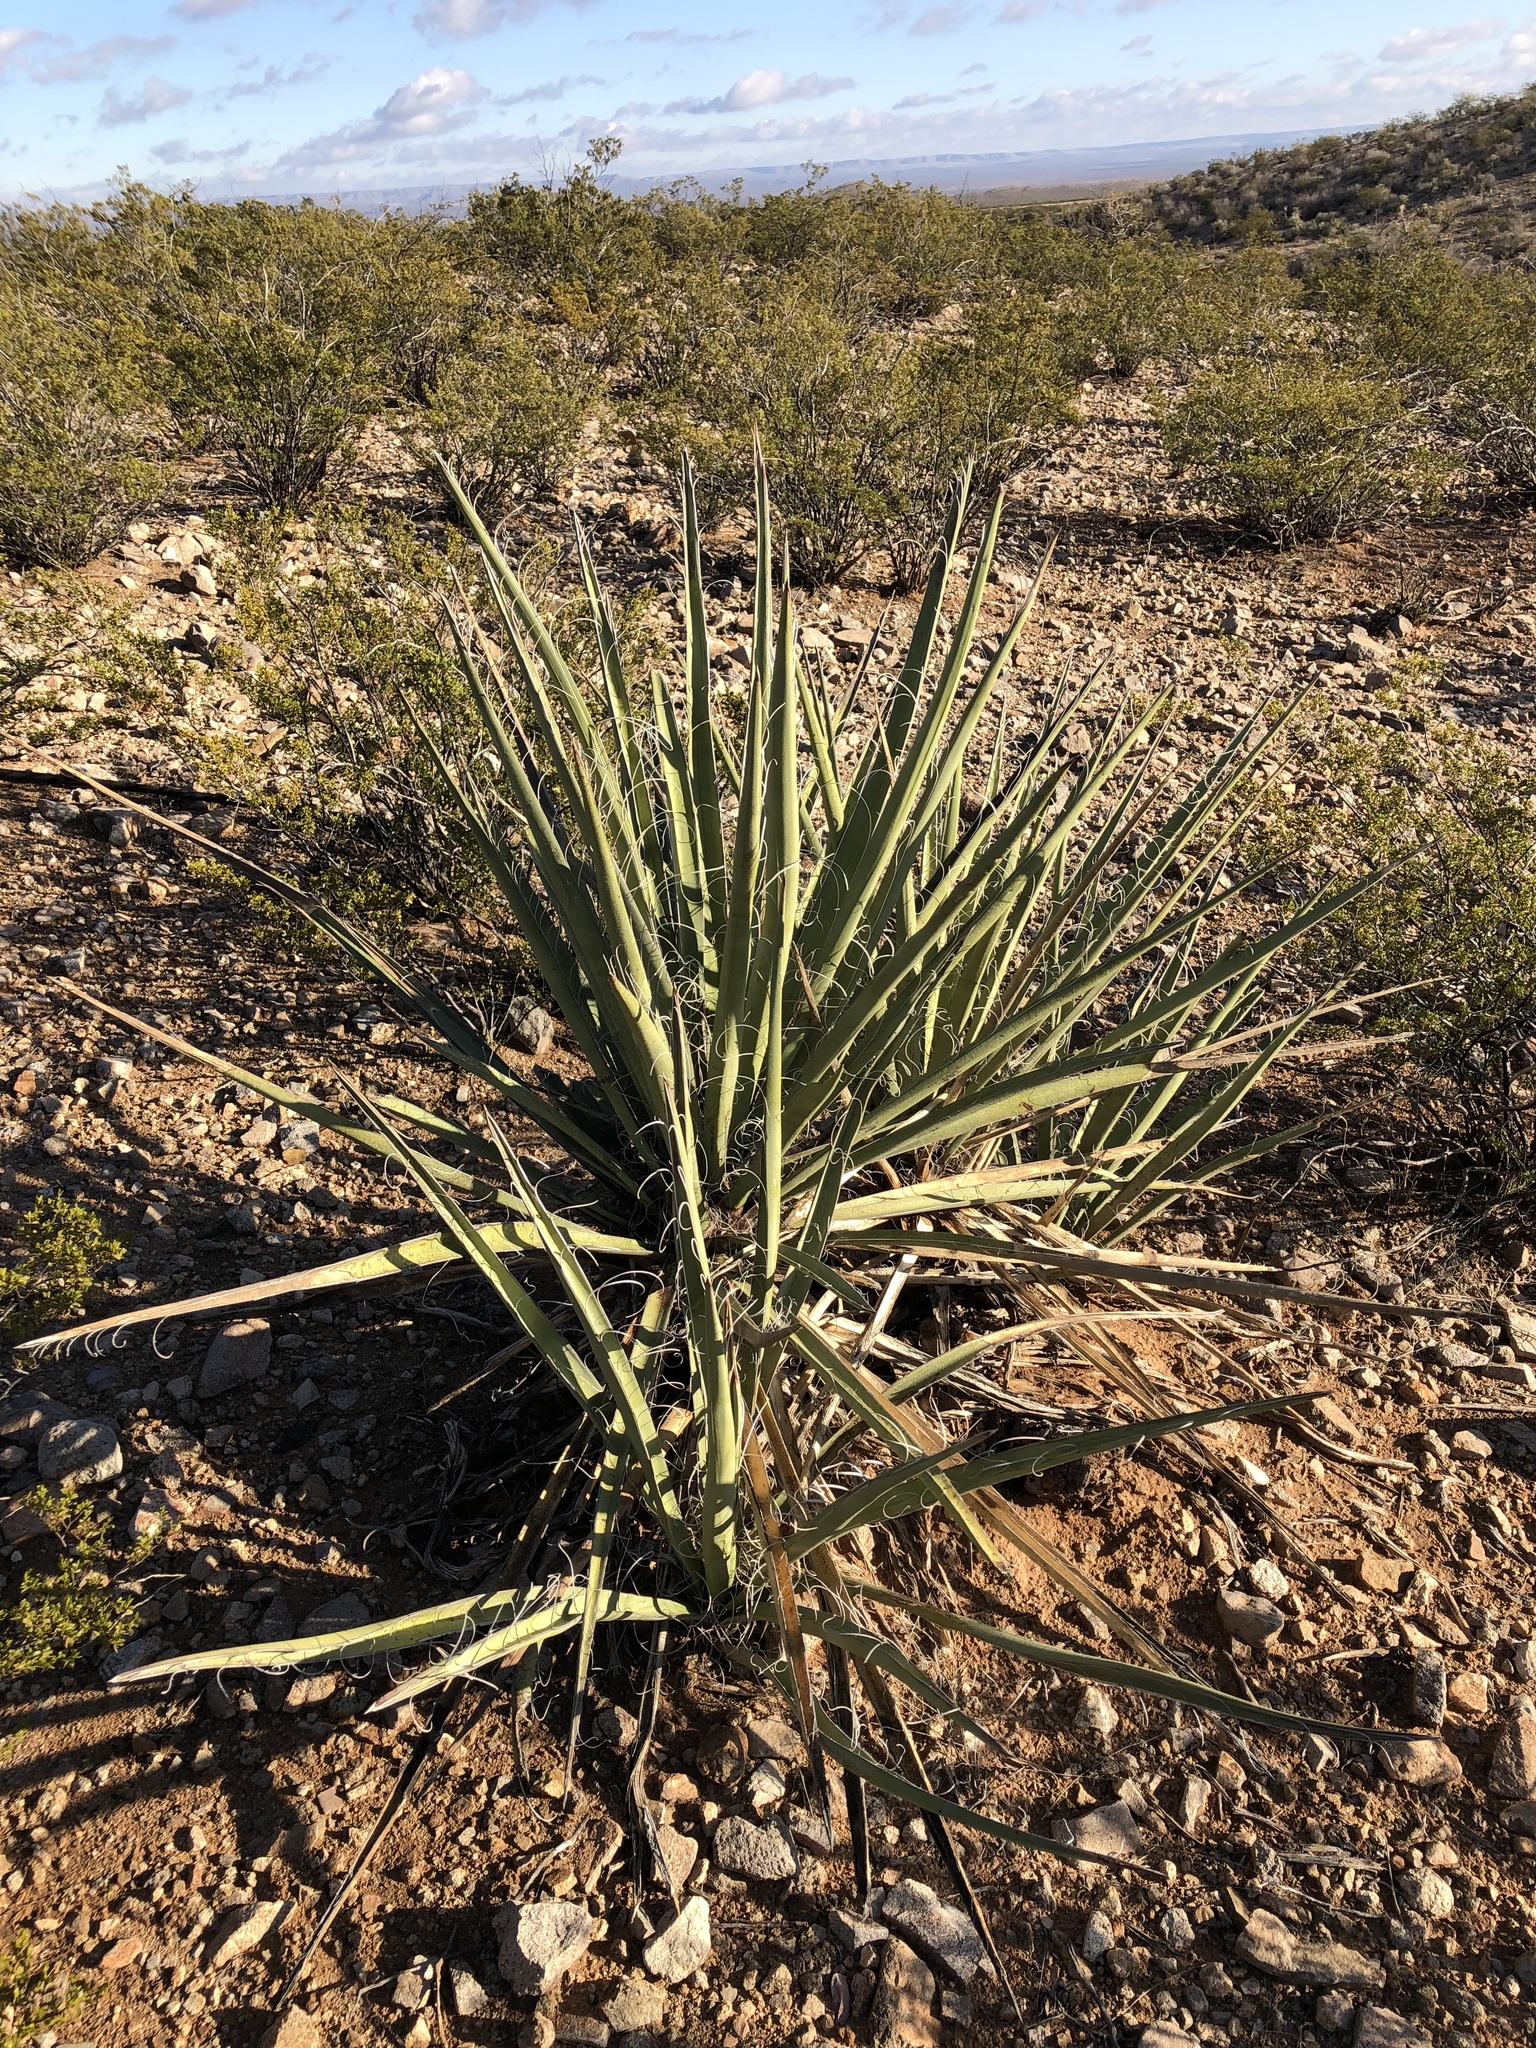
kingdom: Plantae
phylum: Tracheophyta
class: Liliopsida
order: Asparagales
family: Asparagaceae
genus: Yucca
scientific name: Yucca baccata
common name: Banana yucca
